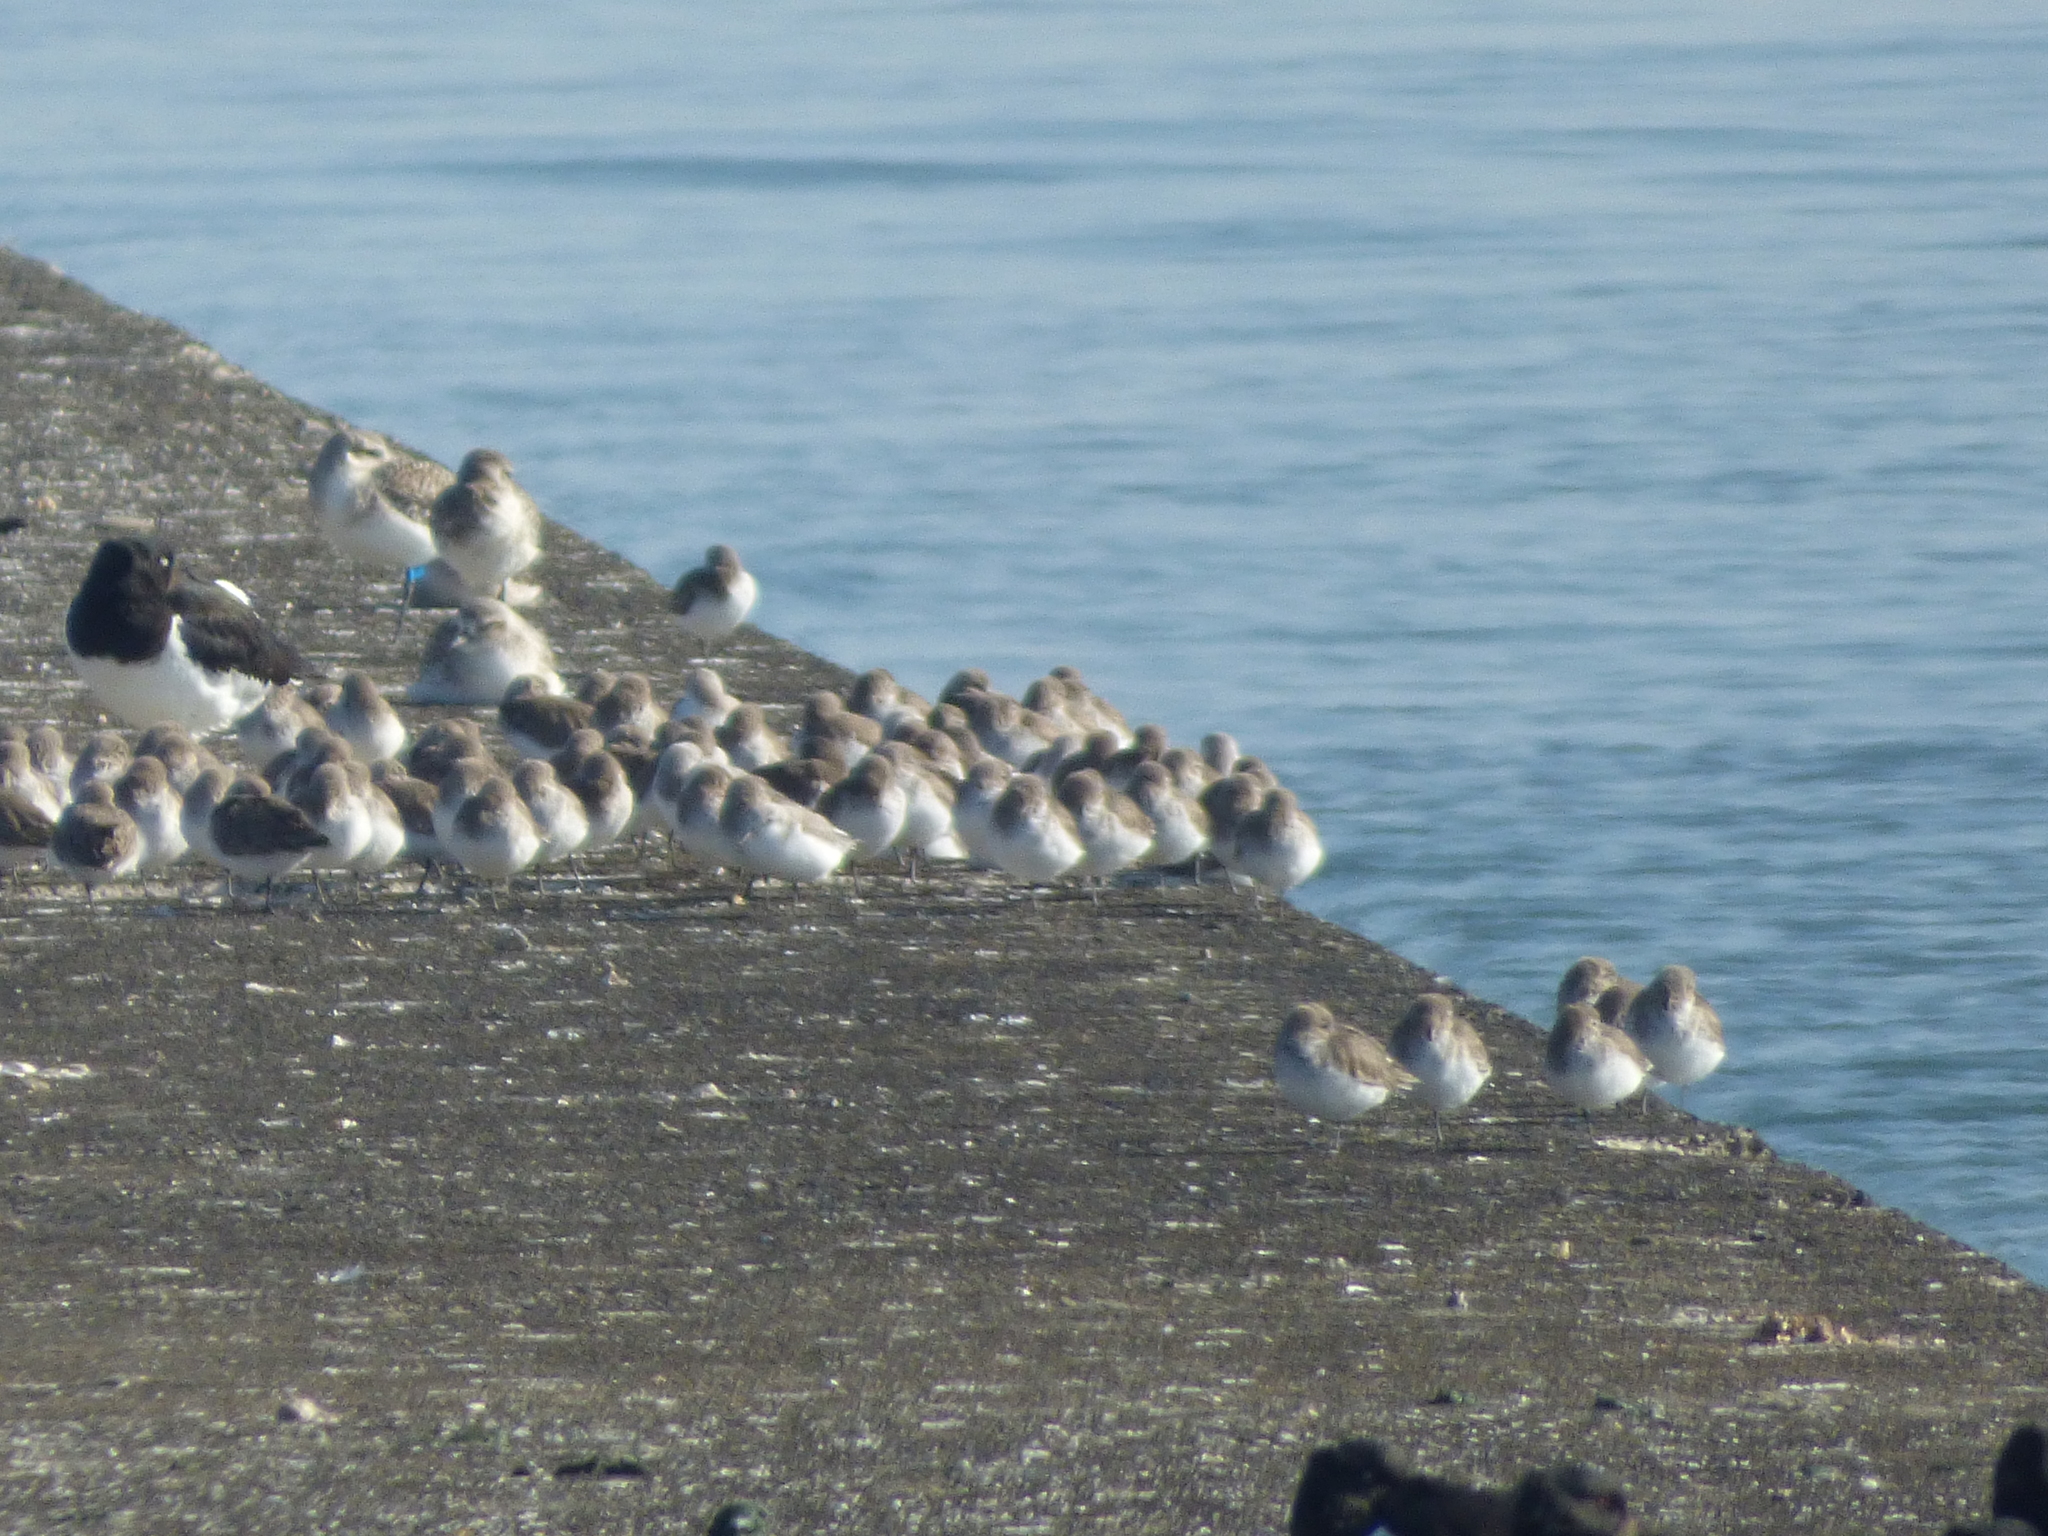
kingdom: Animalia
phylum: Chordata
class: Aves
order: Charadriiformes
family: Scolopacidae
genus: Calidris
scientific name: Calidris alpina
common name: Dunlin
